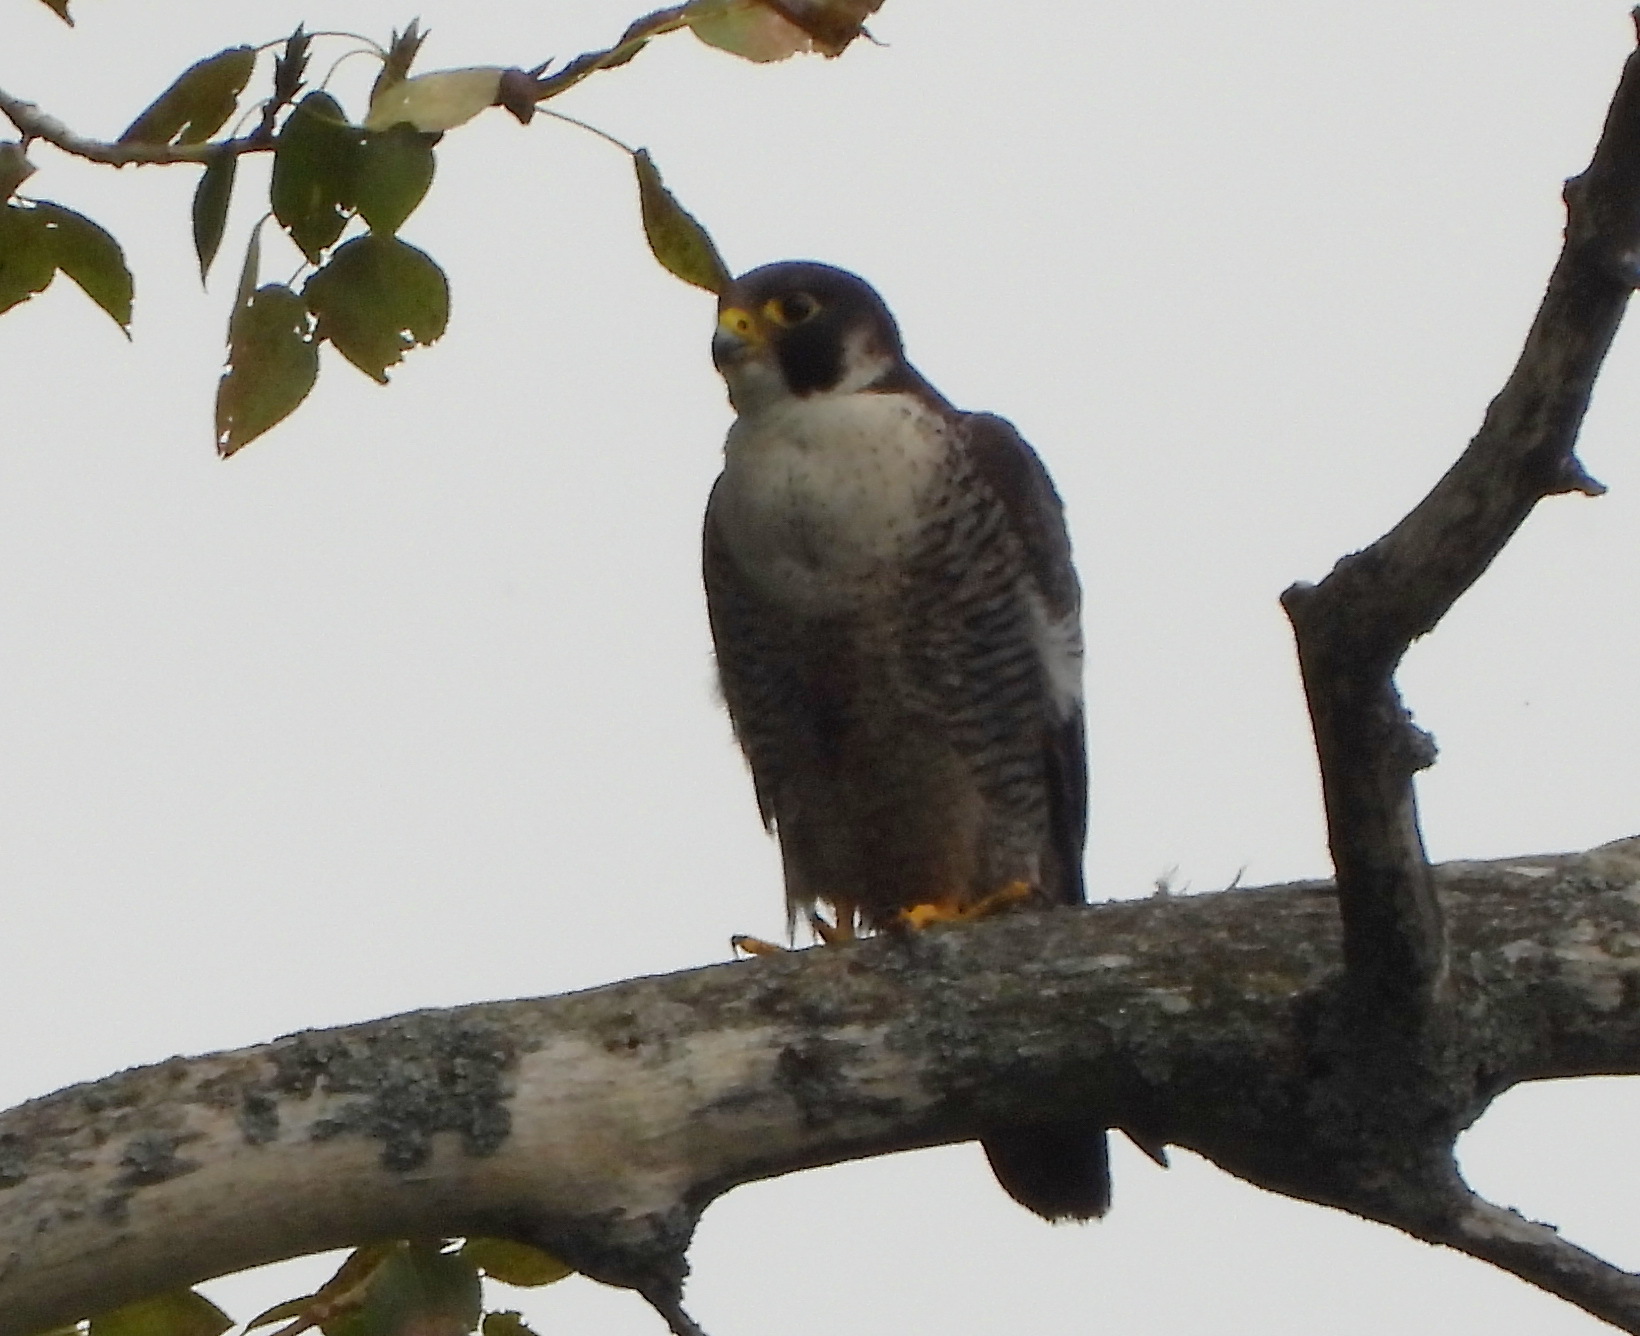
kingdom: Animalia
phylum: Chordata
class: Aves
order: Falconiformes
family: Falconidae
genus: Falco
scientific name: Falco peregrinus
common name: Peregrine falcon
